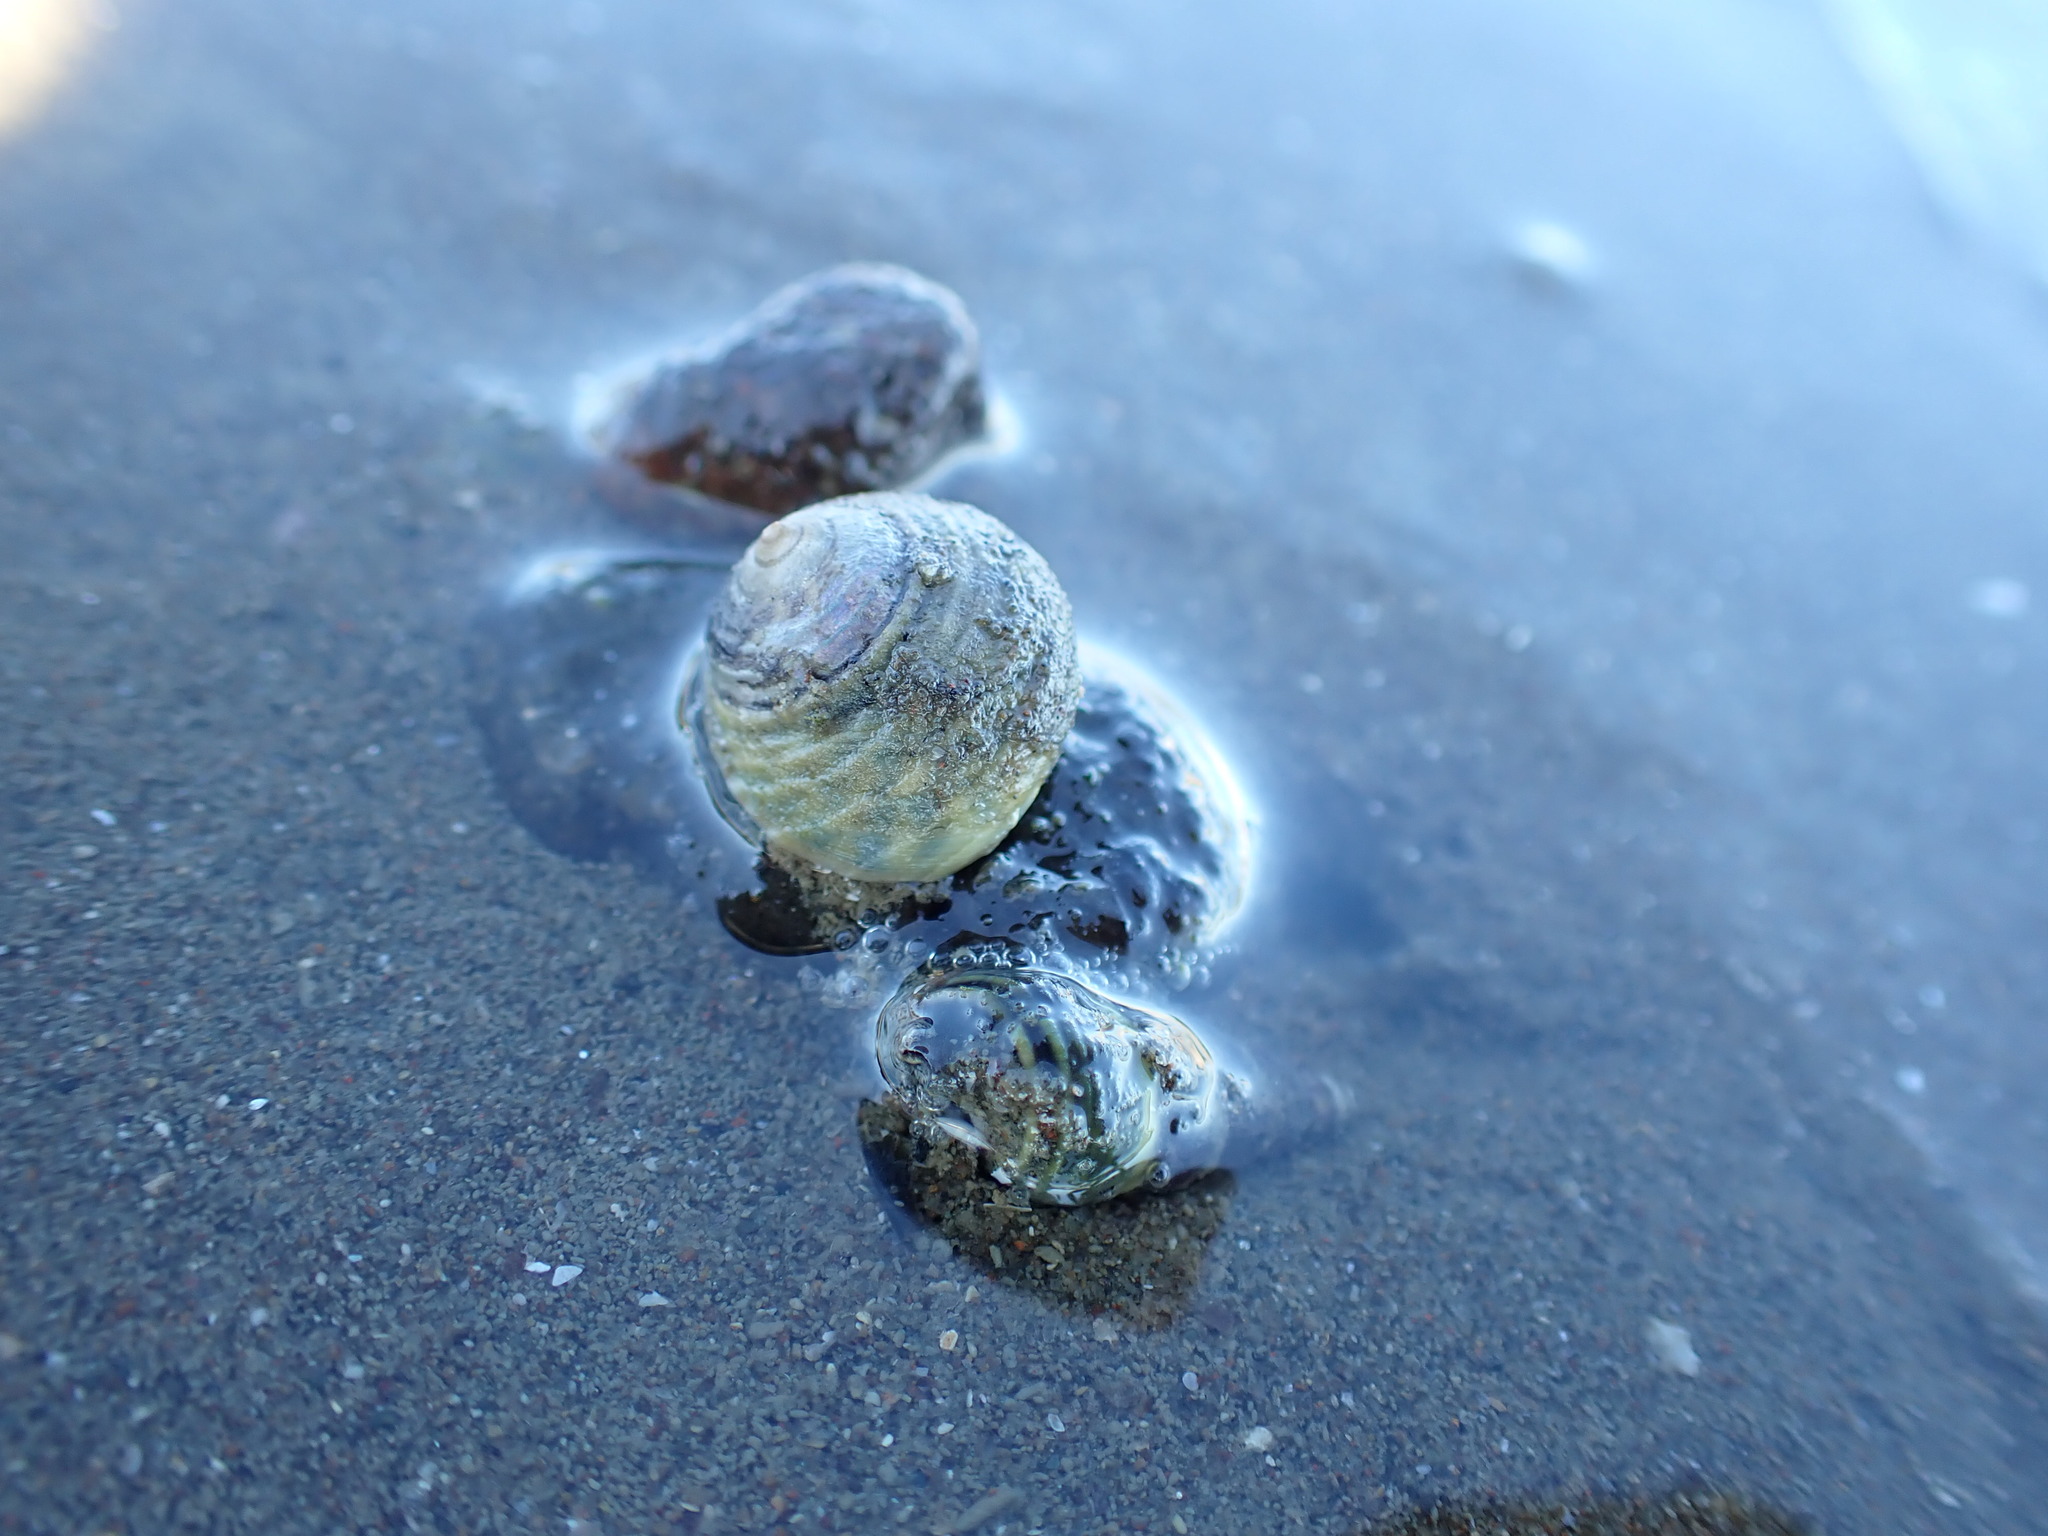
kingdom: Animalia
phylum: Mollusca
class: Gastropoda
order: Trochida
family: Trochidae
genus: Diloma
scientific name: Diloma subrostratum
